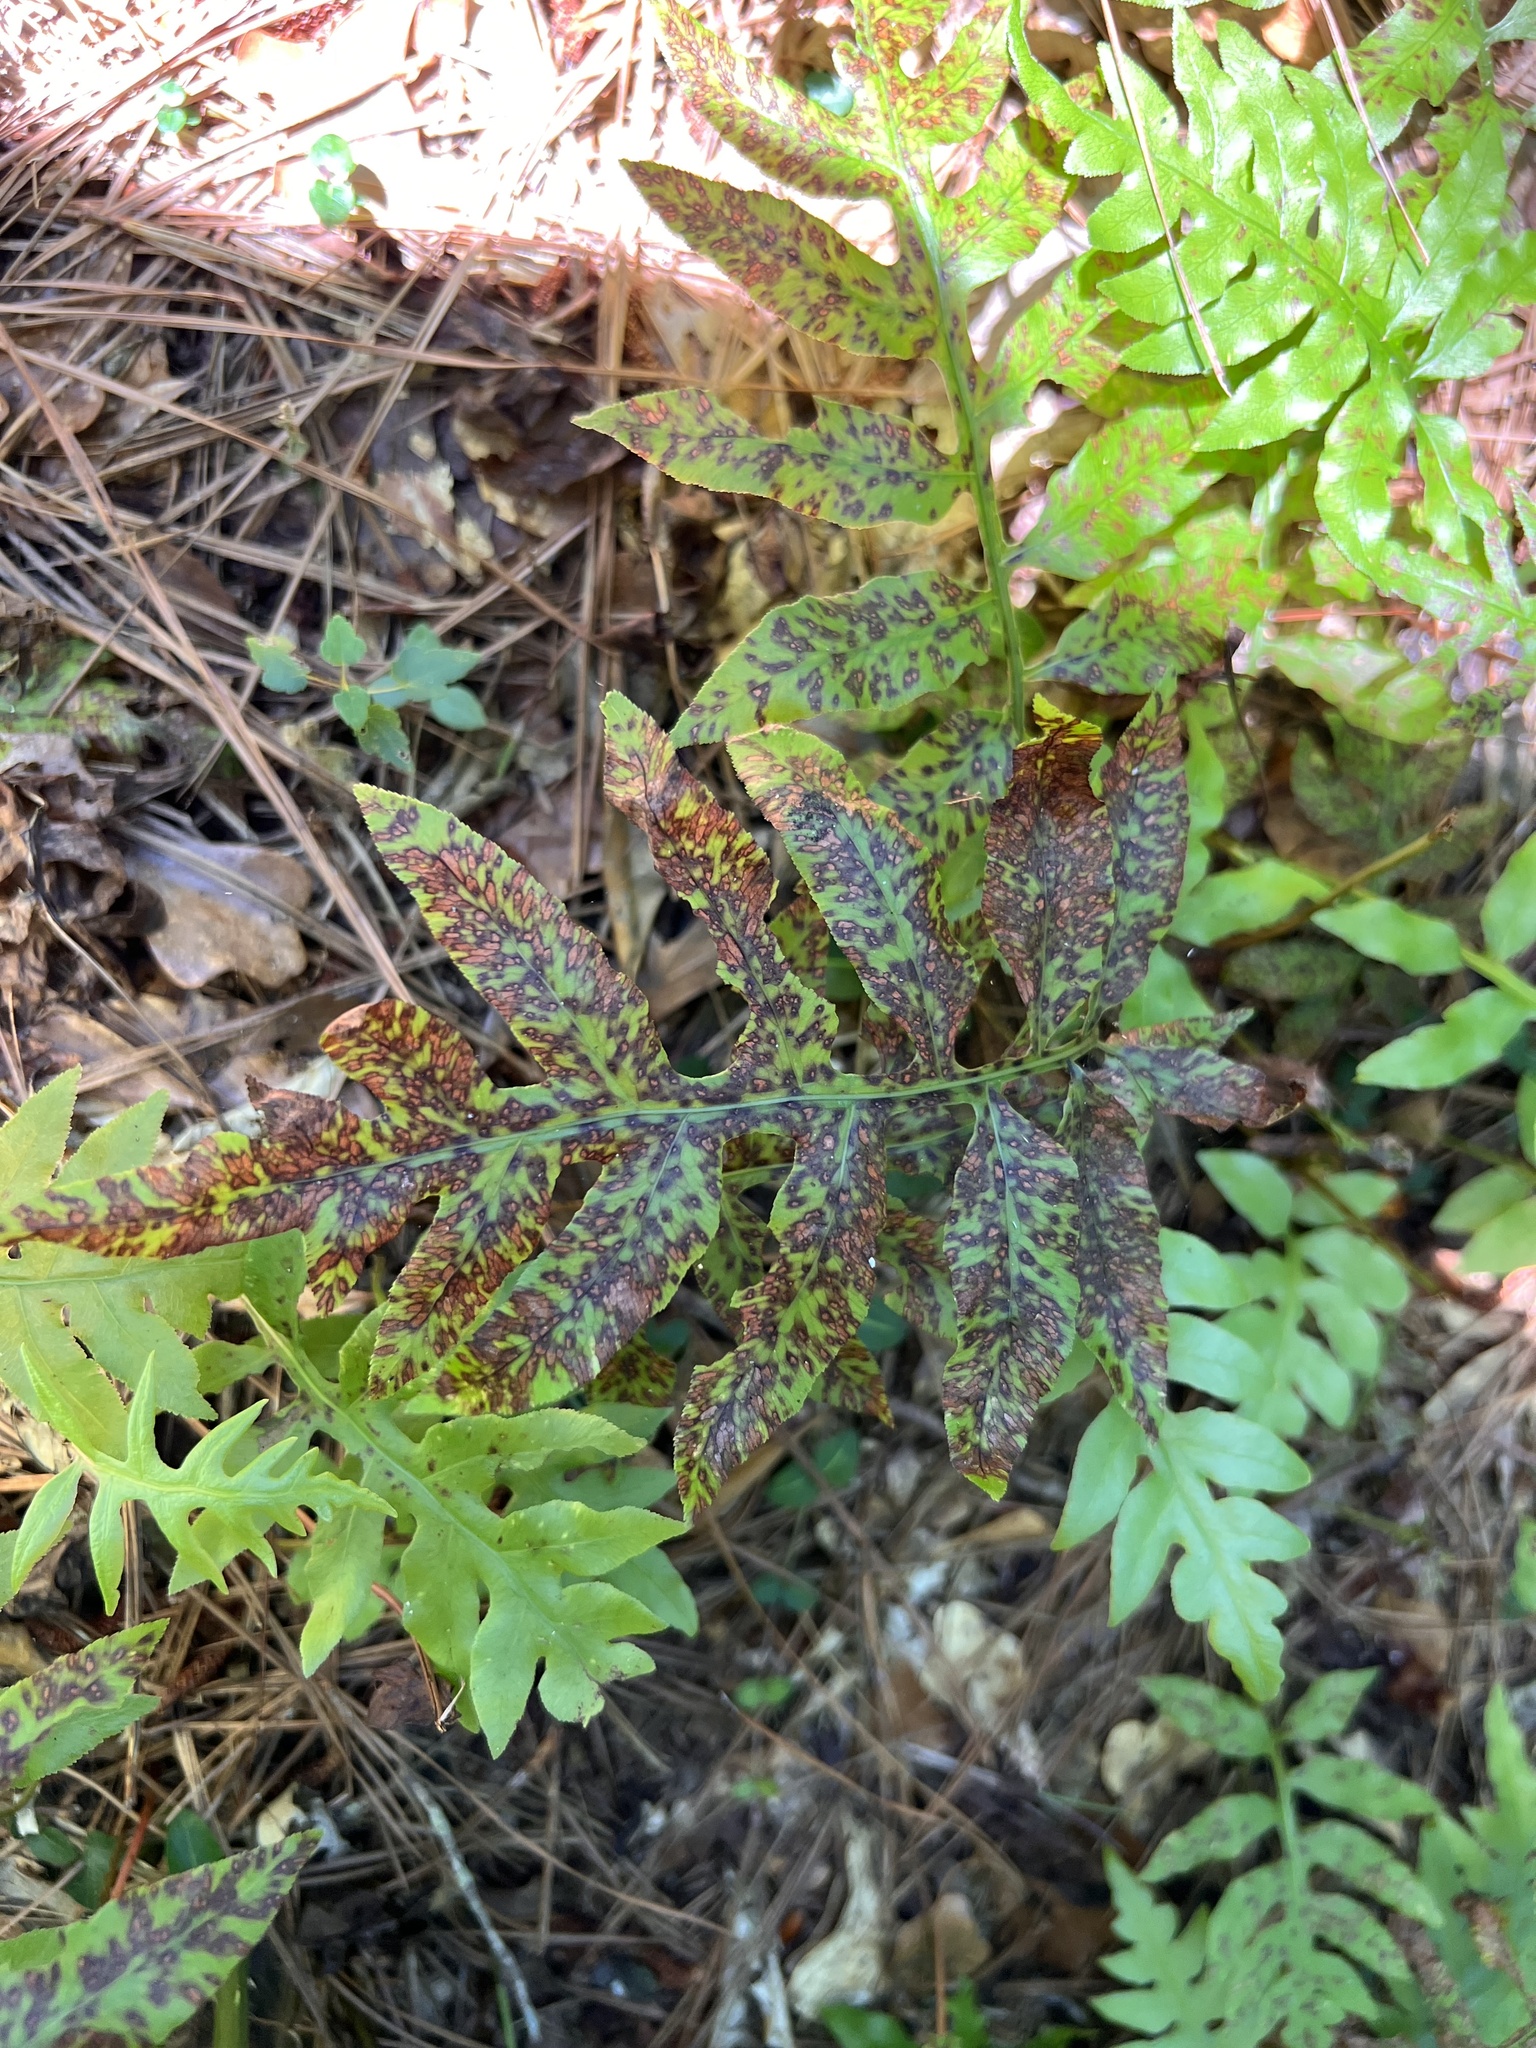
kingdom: Plantae
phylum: Tracheophyta
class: Polypodiopsida
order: Polypodiales
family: Blechnaceae
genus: Lorinseria
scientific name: Lorinseria areolata
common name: Dwarf chain fern
